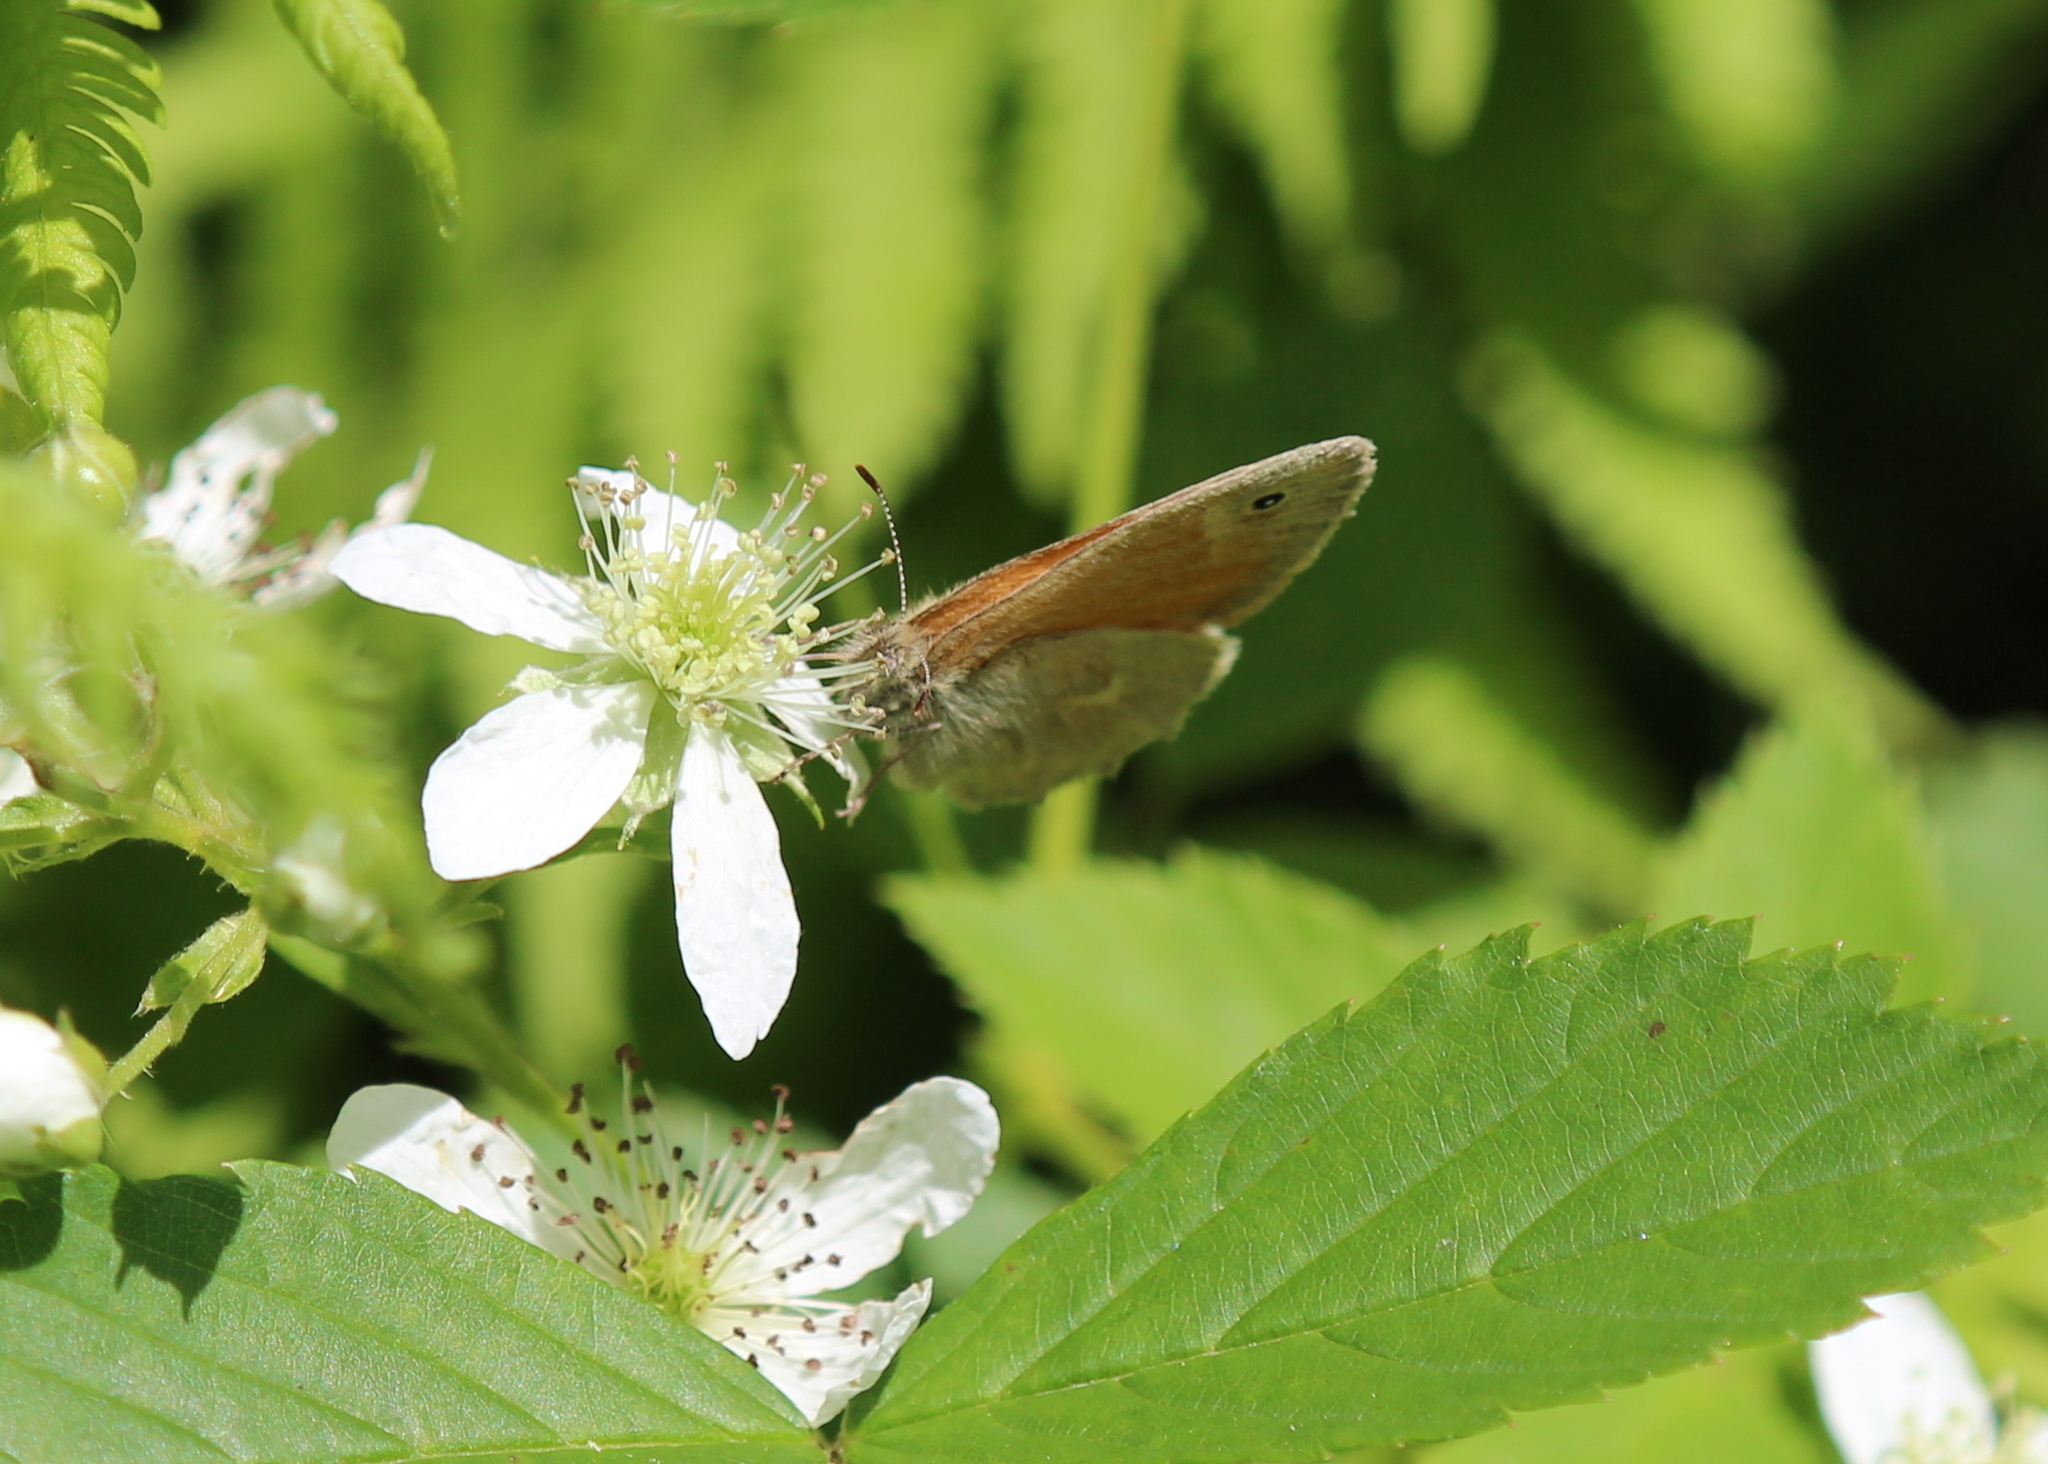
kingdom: Animalia
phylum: Arthropoda
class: Insecta
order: Lepidoptera
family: Nymphalidae
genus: Coenonympha
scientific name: Coenonympha california
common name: Common ringlet
